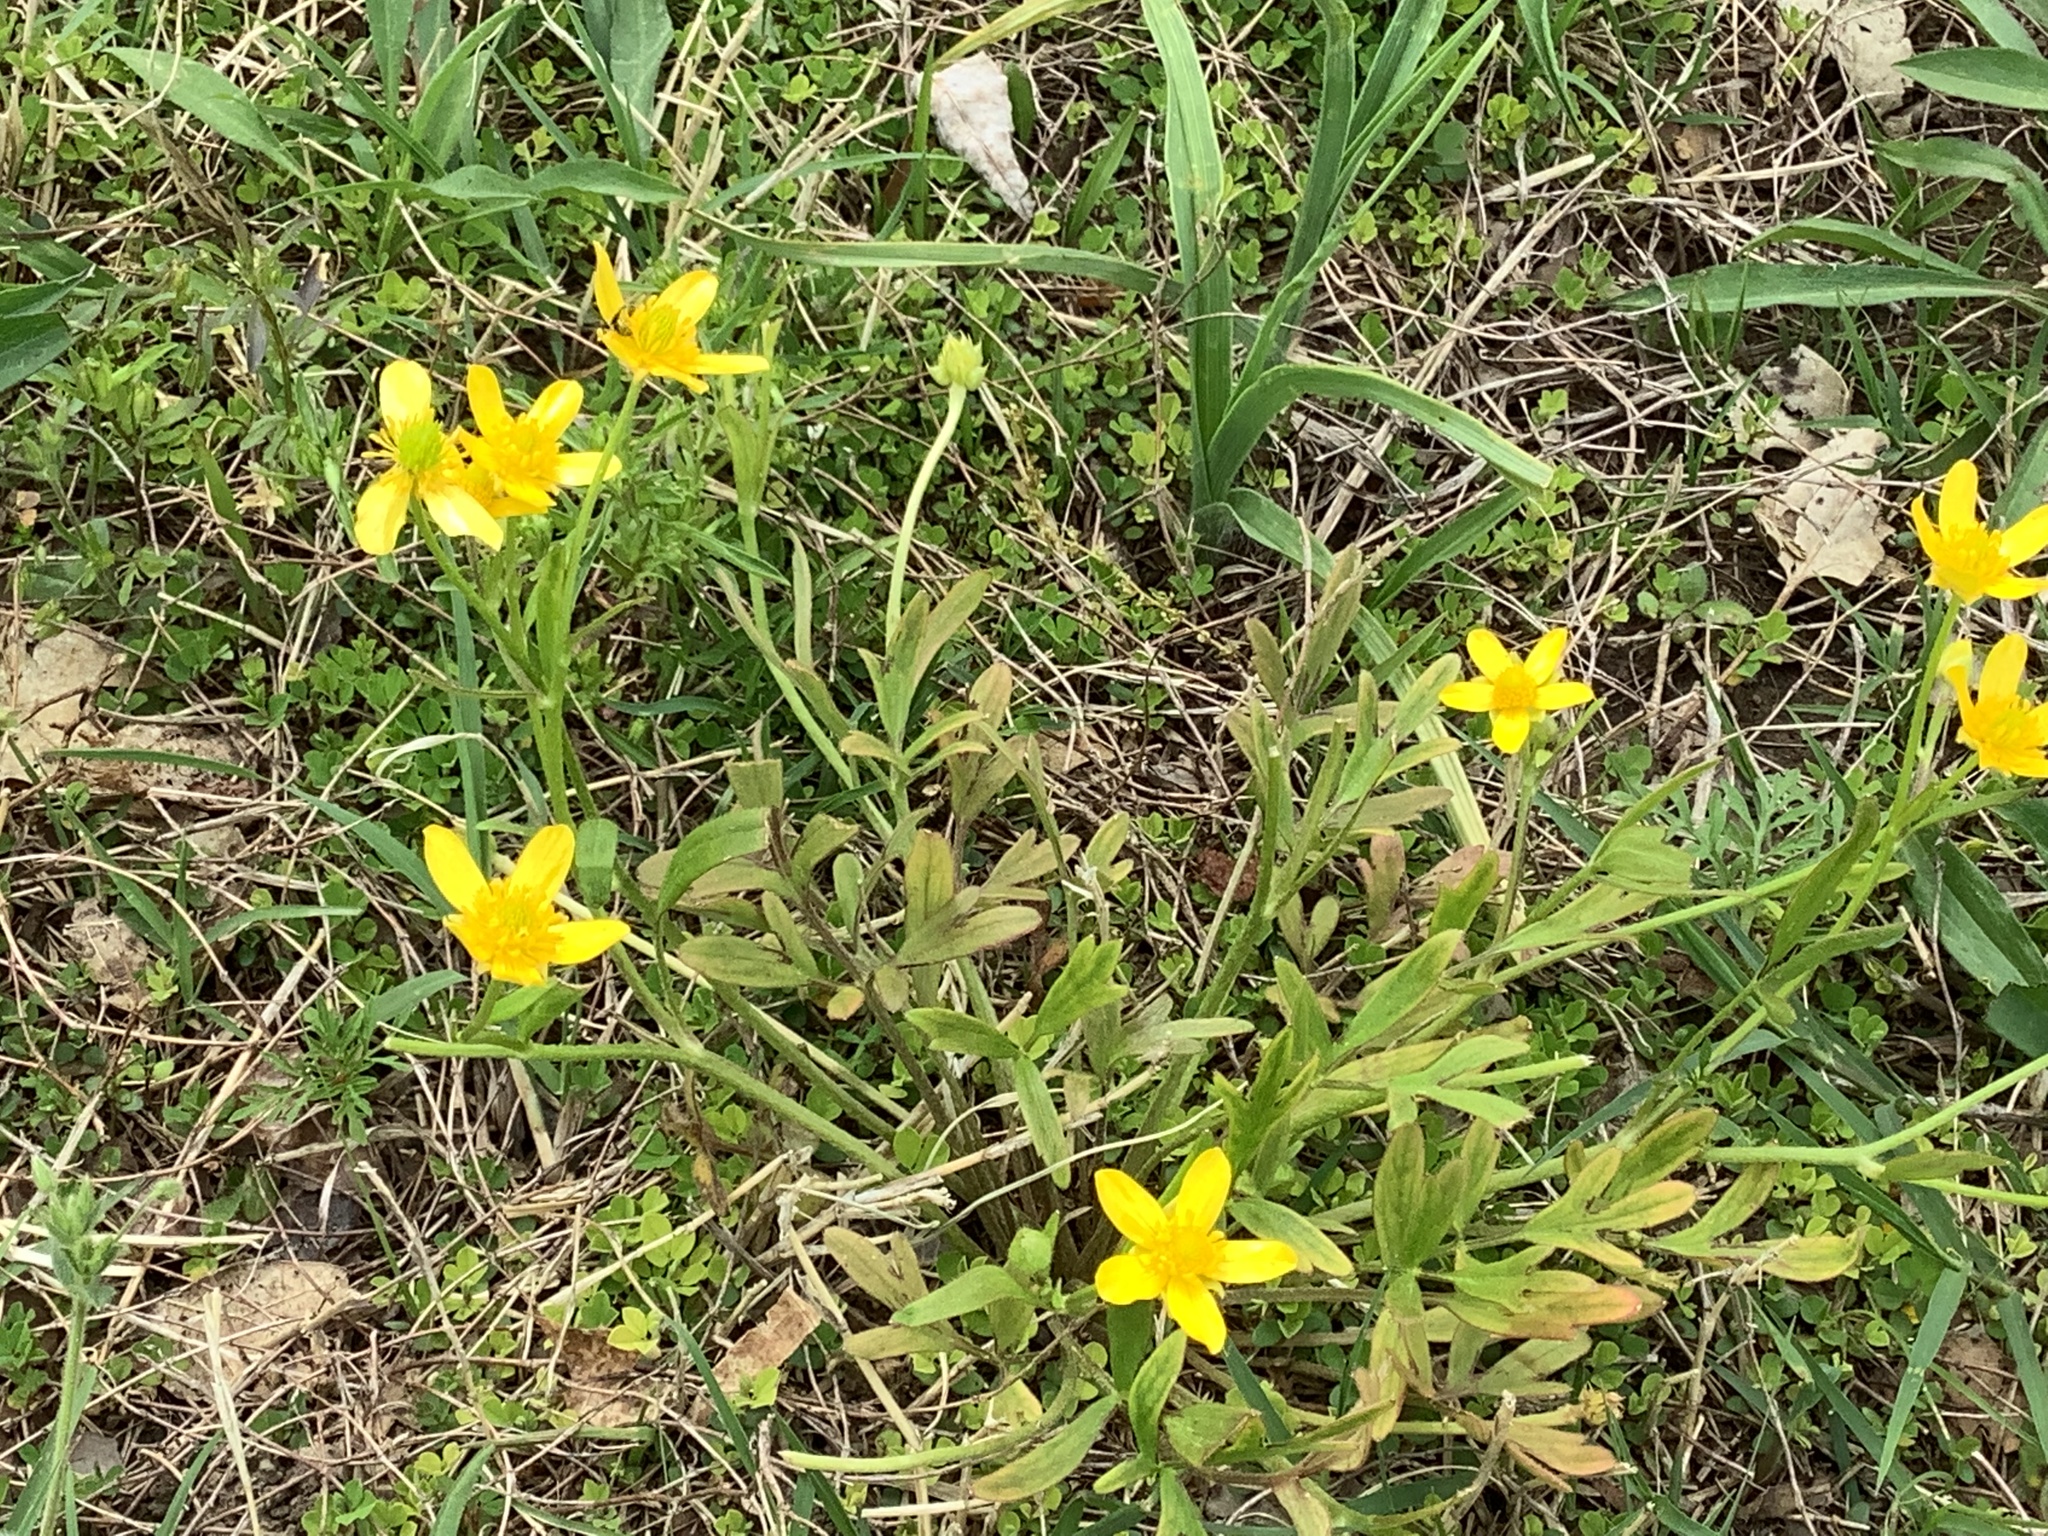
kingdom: Plantae
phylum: Tracheophyta
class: Magnoliopsida
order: Ranunculales
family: Ranunculaceae
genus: Ranunculus
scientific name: Ranunculus fascicularis
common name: Early buttercup
